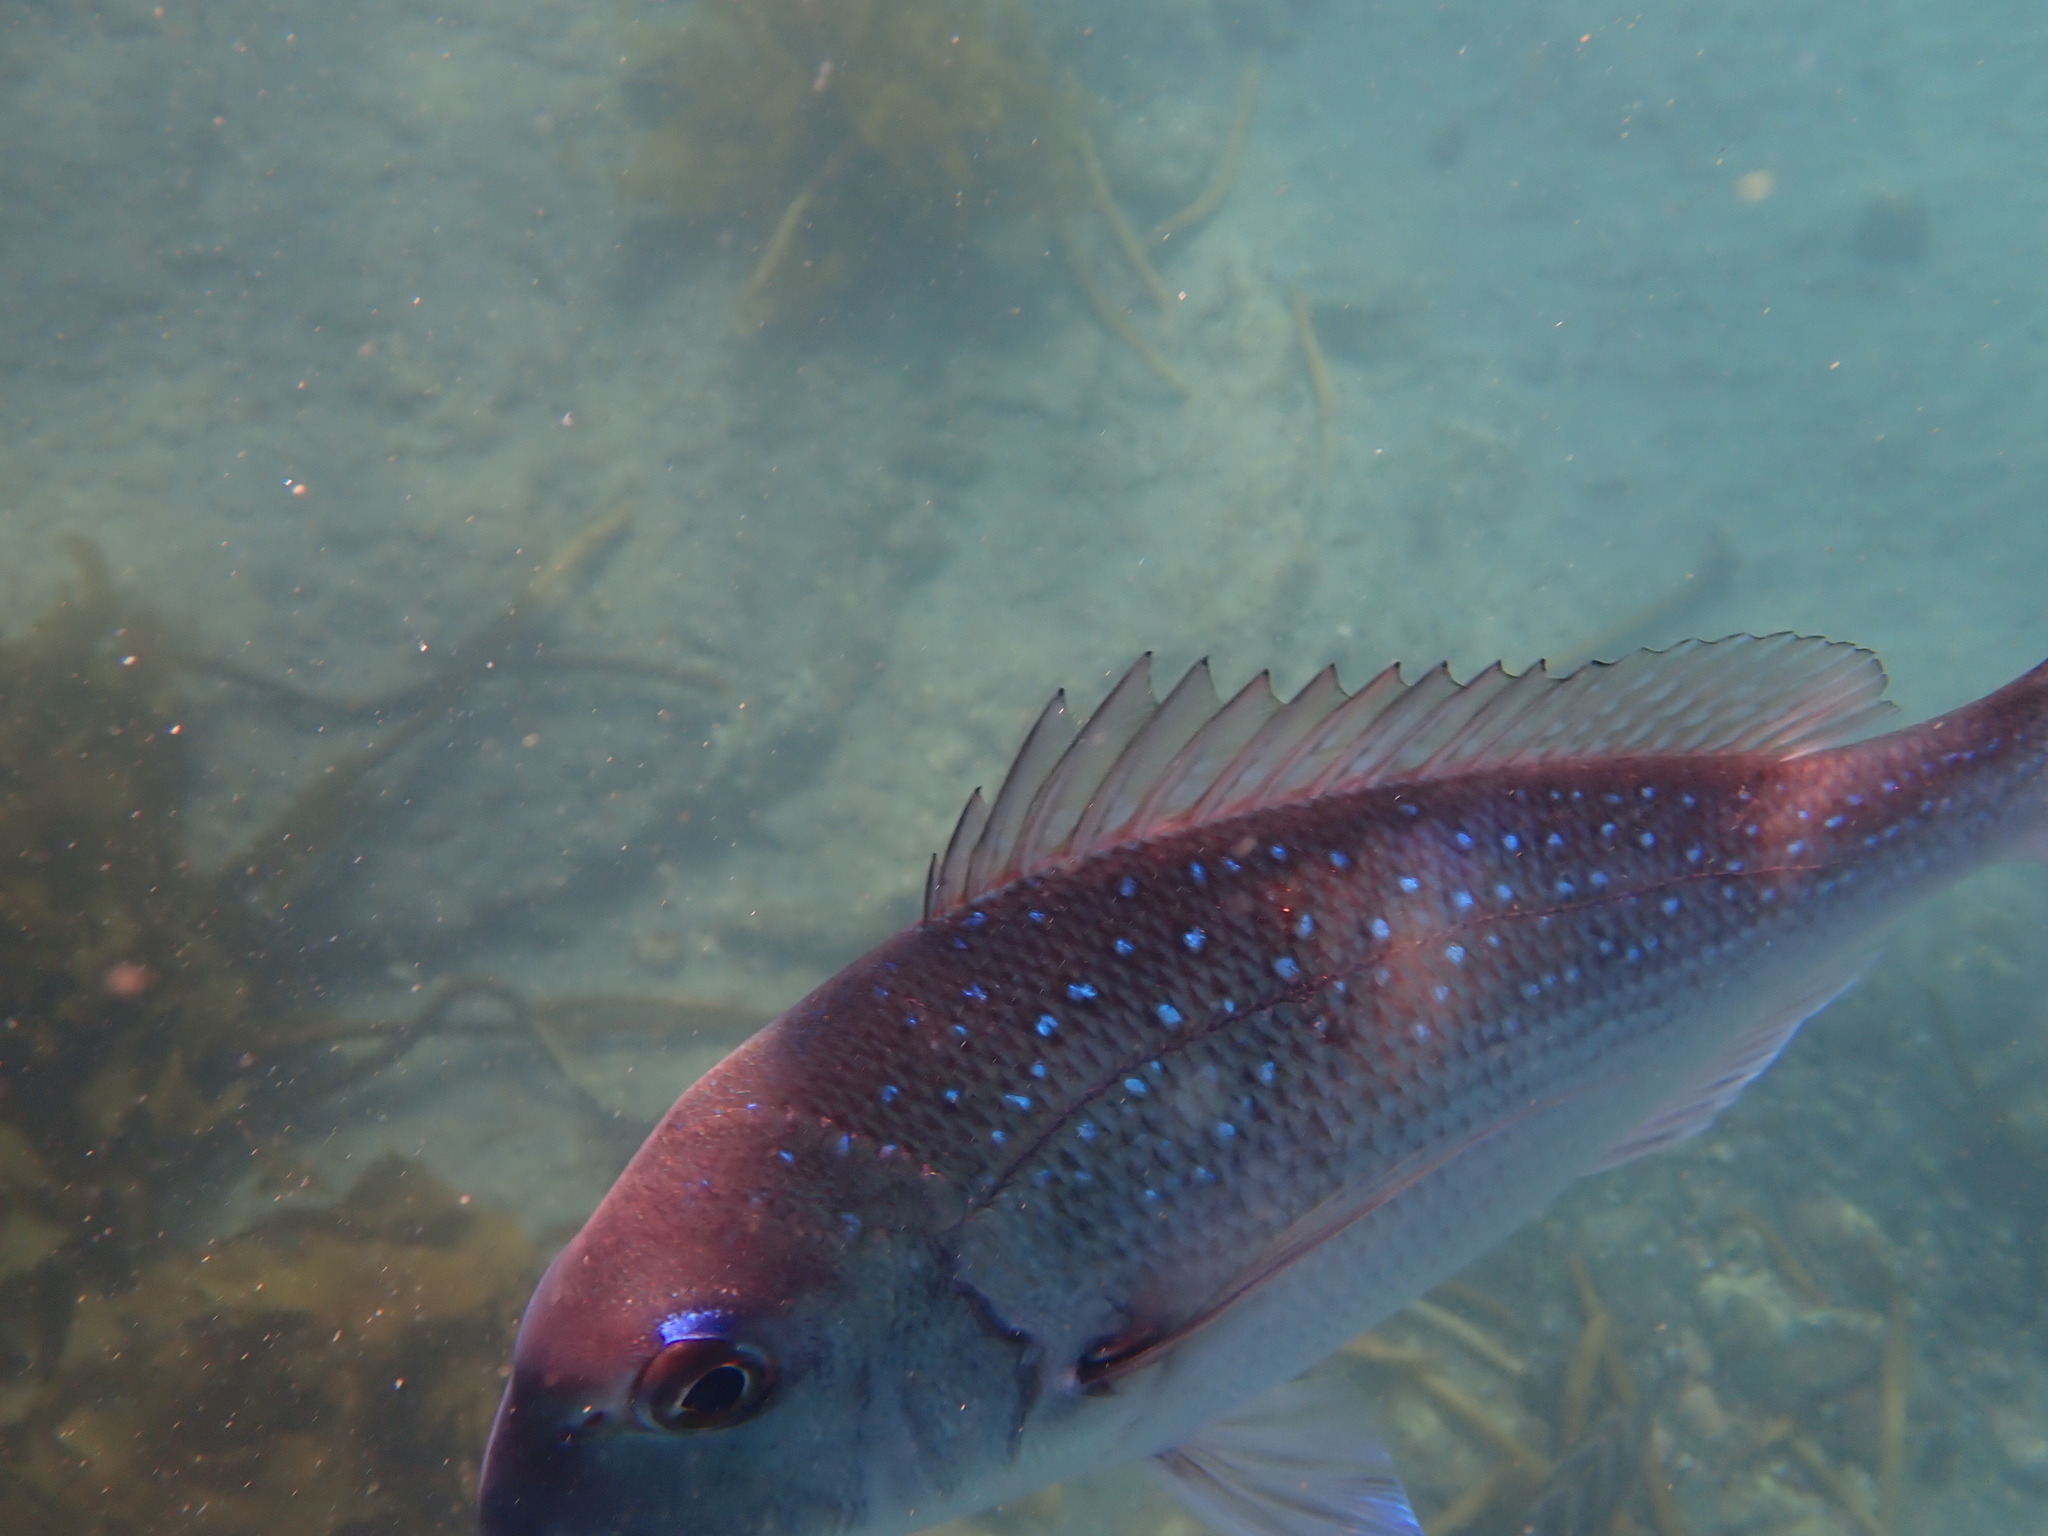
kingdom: Animalia
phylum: Chordata
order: Perciformes
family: Sparidae
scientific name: Sparidae
